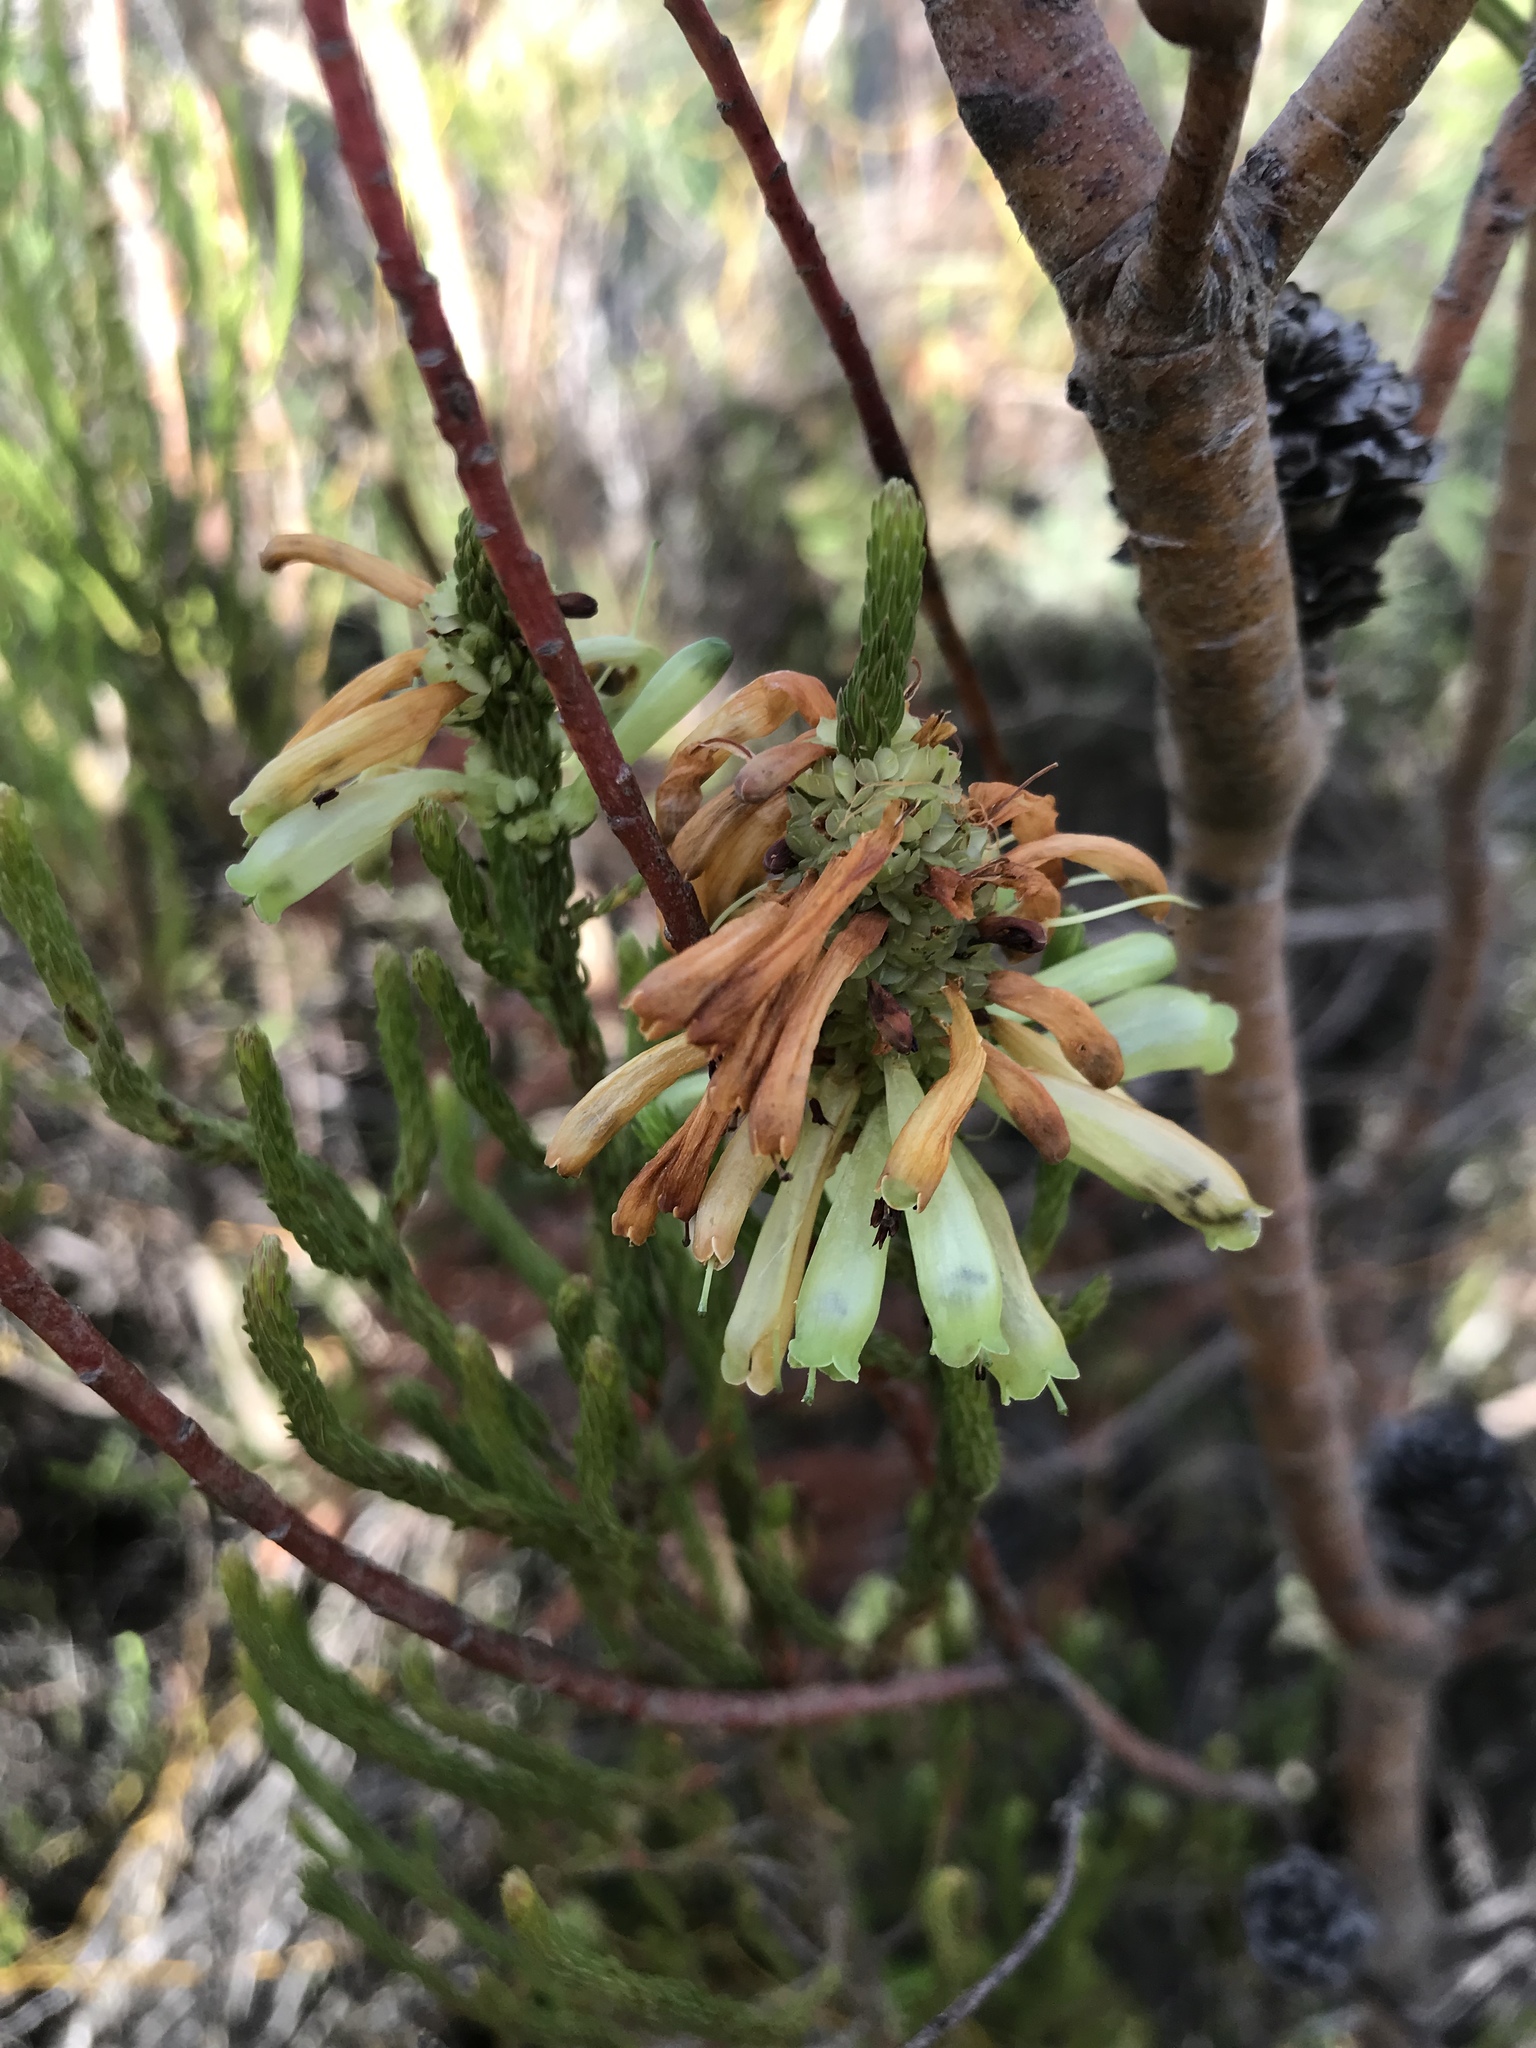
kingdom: Plantae
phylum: Tracheophyta
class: Magnoliopsida
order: Ericales
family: Ericaceae
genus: Erica
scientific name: Erica sessiliflora
